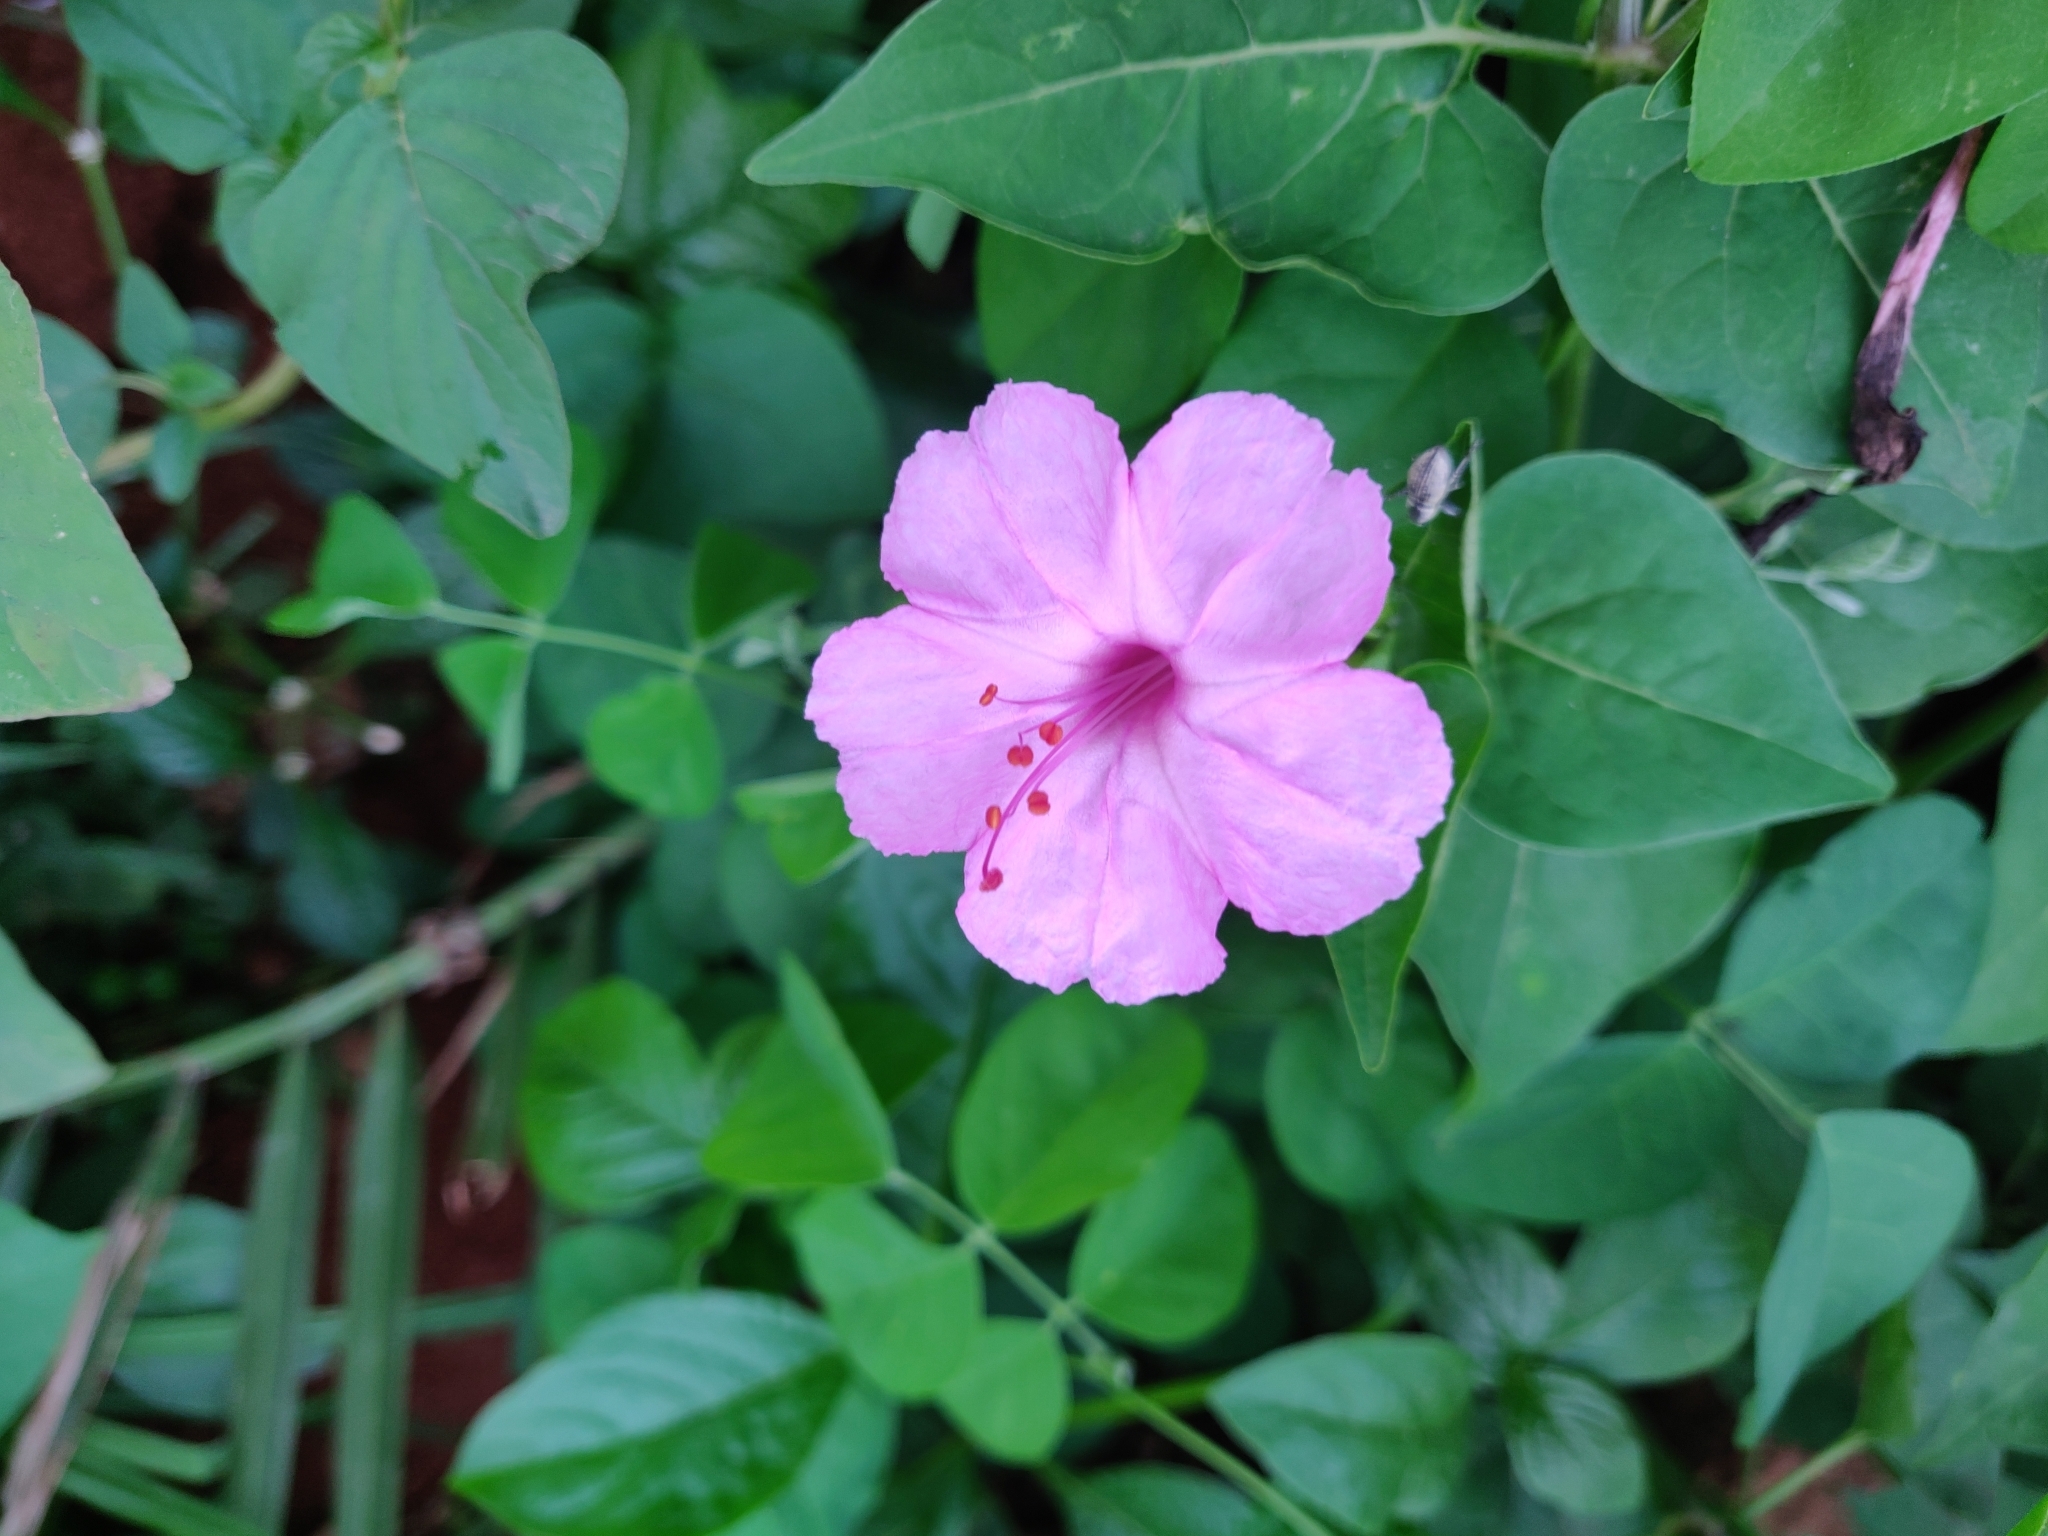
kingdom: Plantae
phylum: Tracheophyta
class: Magnoliopsida
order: Caryophyllales
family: Nyctaginaceae
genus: Mirabilis
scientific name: Mirabilis jalapa
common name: Marvel-of-peru
